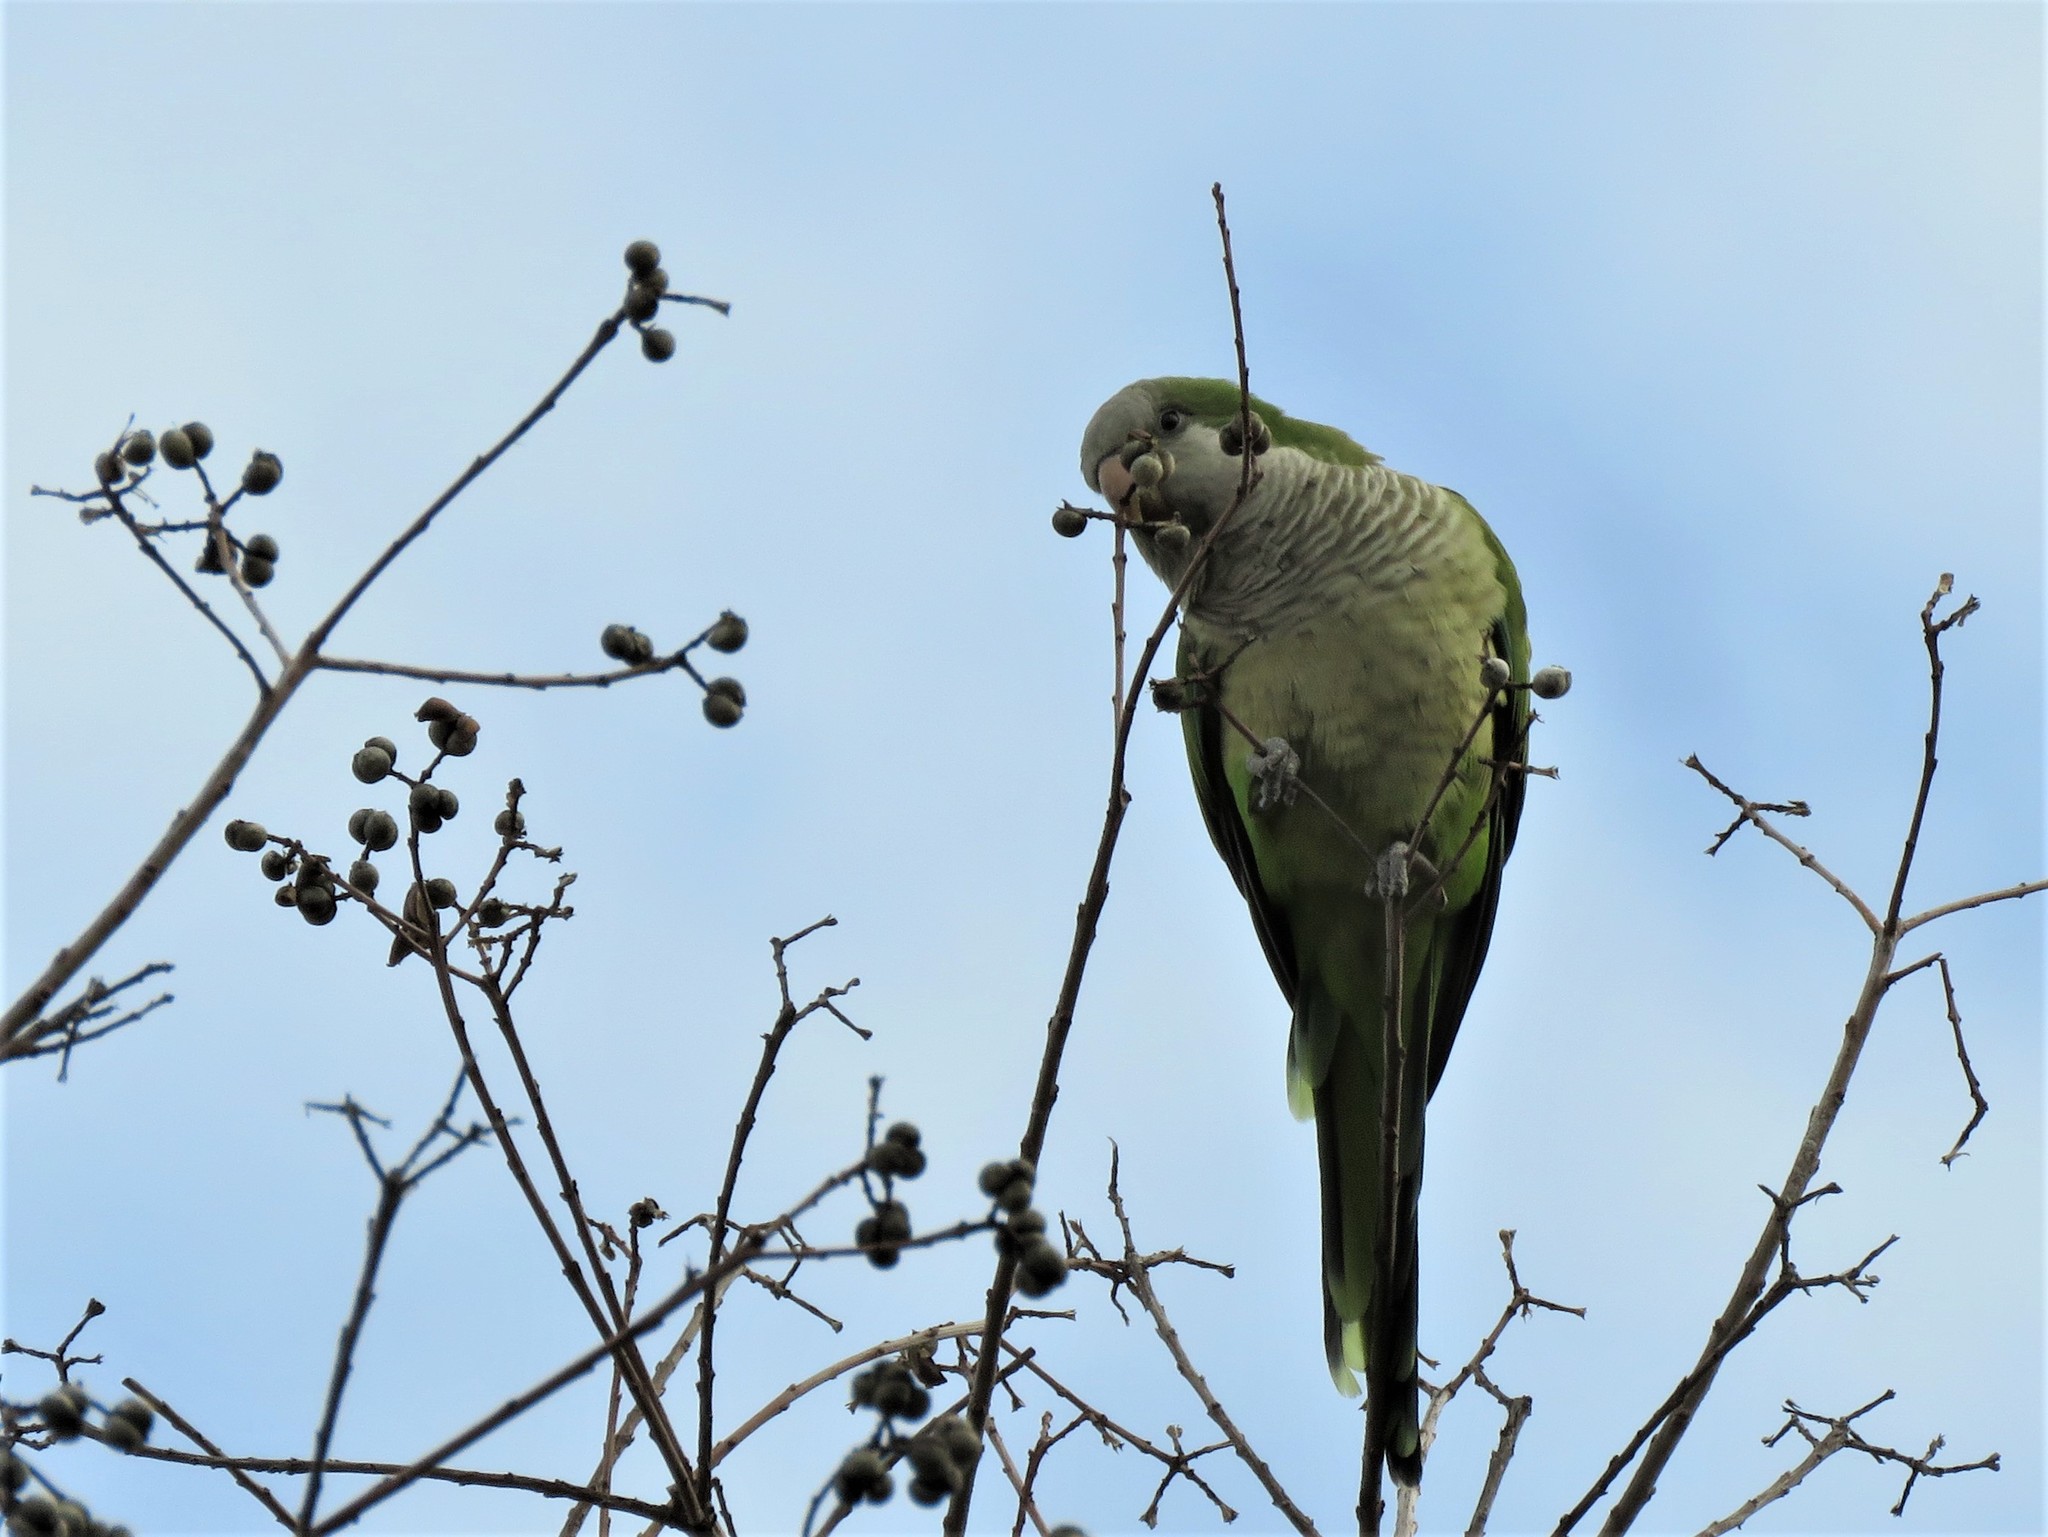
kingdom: Animalia
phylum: Chordata
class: Aves
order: Psittaciformes
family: Psittacidae
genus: Myiopsitta
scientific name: Myiopsitta monachus
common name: Monk parakeet
